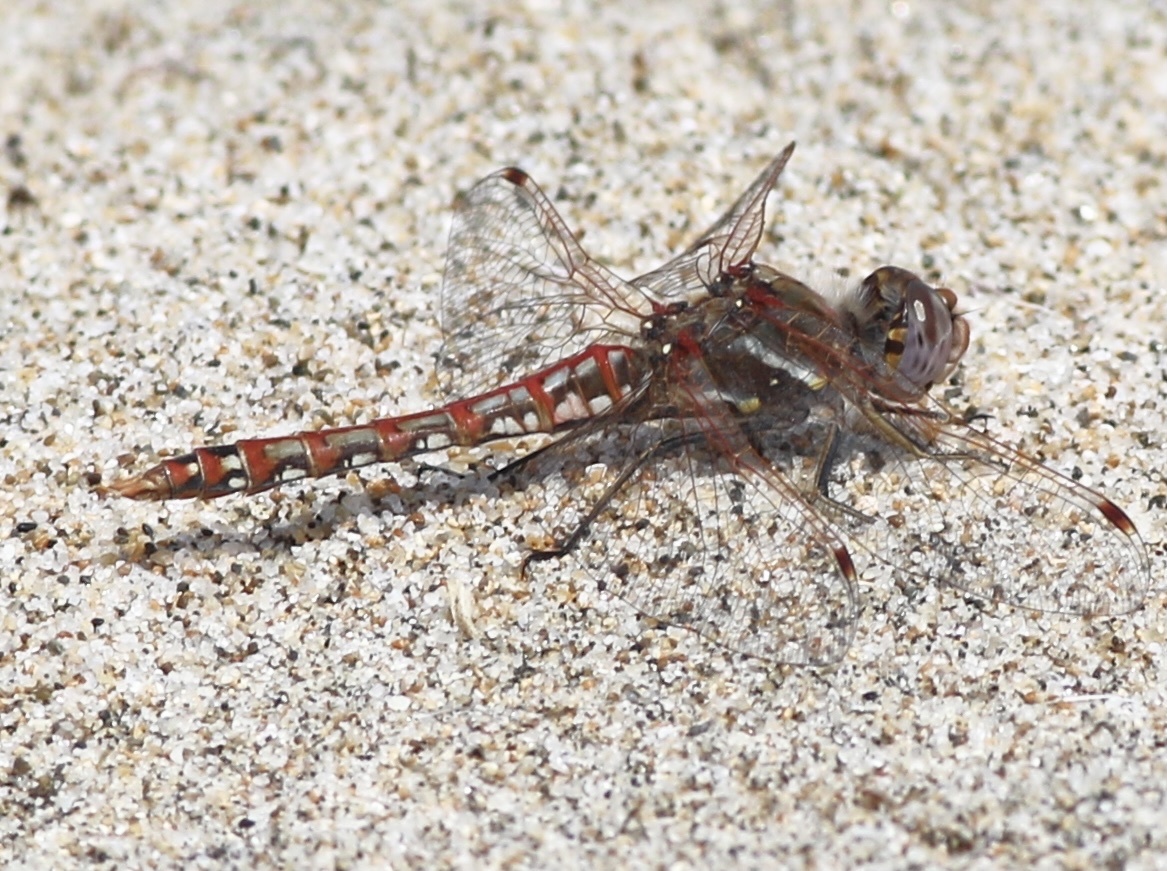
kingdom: Animalia
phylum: Arthropoda
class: Insecta
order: Odonata
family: Libellulidae
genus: Sympetrum
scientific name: Sympetrum corruptum
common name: Variegated meadowhawk
